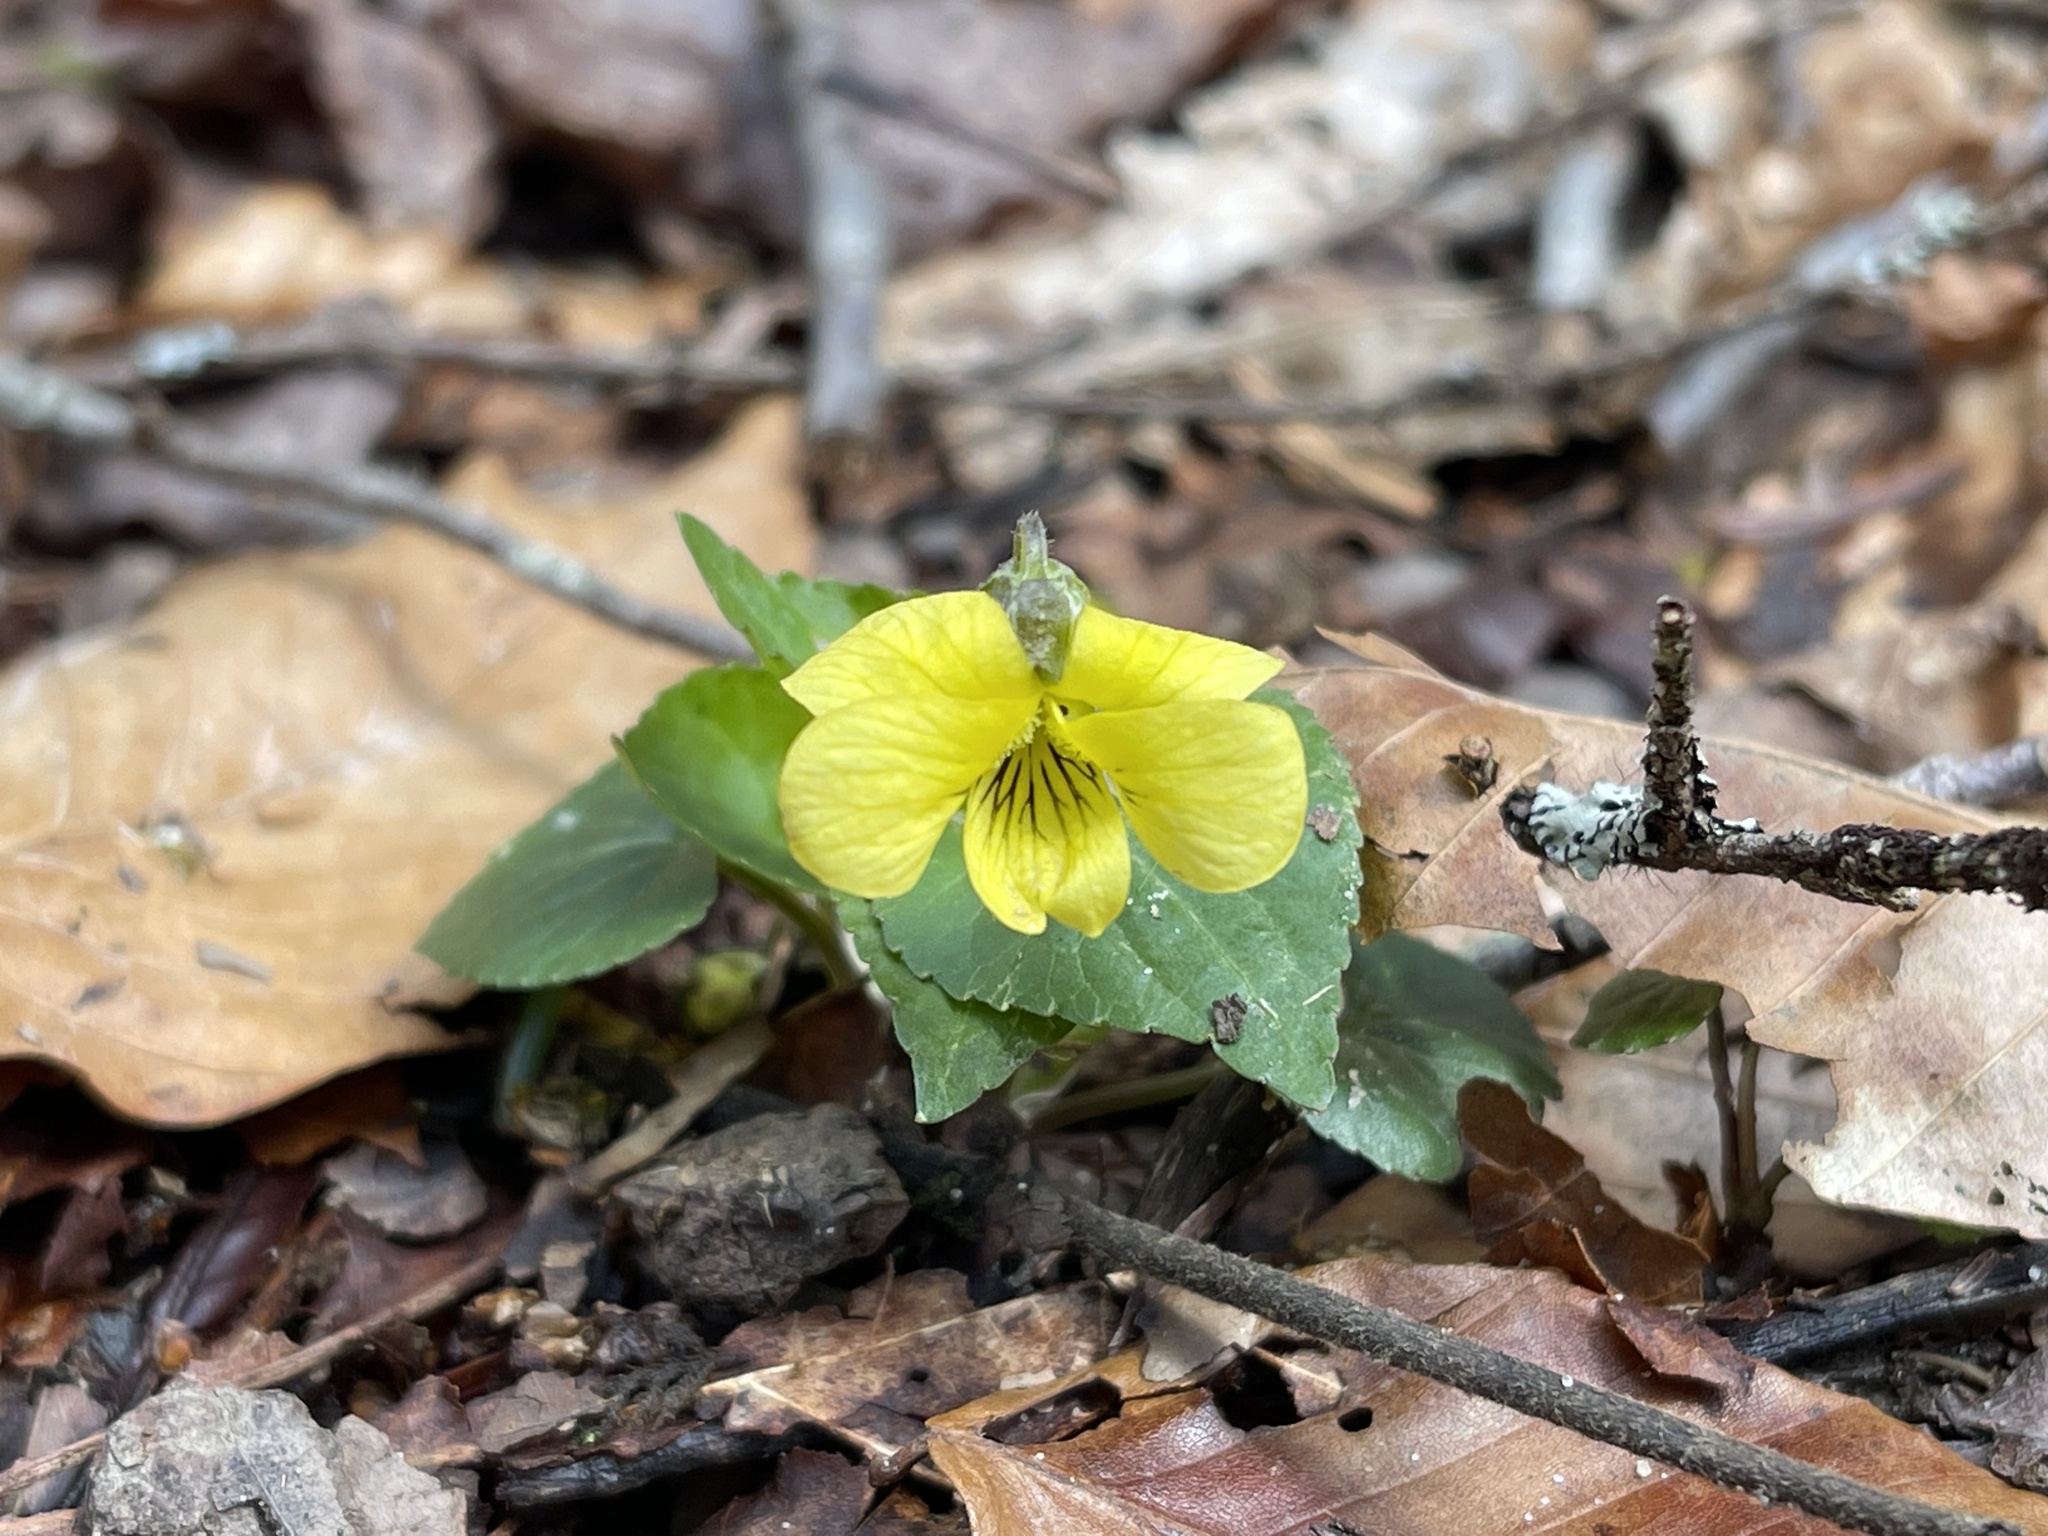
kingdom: Plantae
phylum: Tracheophyta
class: Magnoliopsida
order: Malpighiales
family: Violaceae
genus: Viola
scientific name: Viola eriocarpa
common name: Smooth yellow violet
